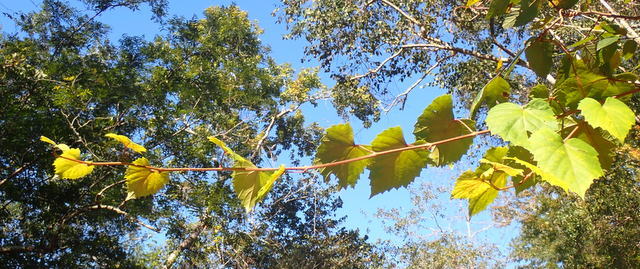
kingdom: Plantae
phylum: Tracheophyta
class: Magnoliopsida
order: Vitales
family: Vitaceae
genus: Vitis
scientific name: Vitis rotundifolia
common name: Muscadine grape
